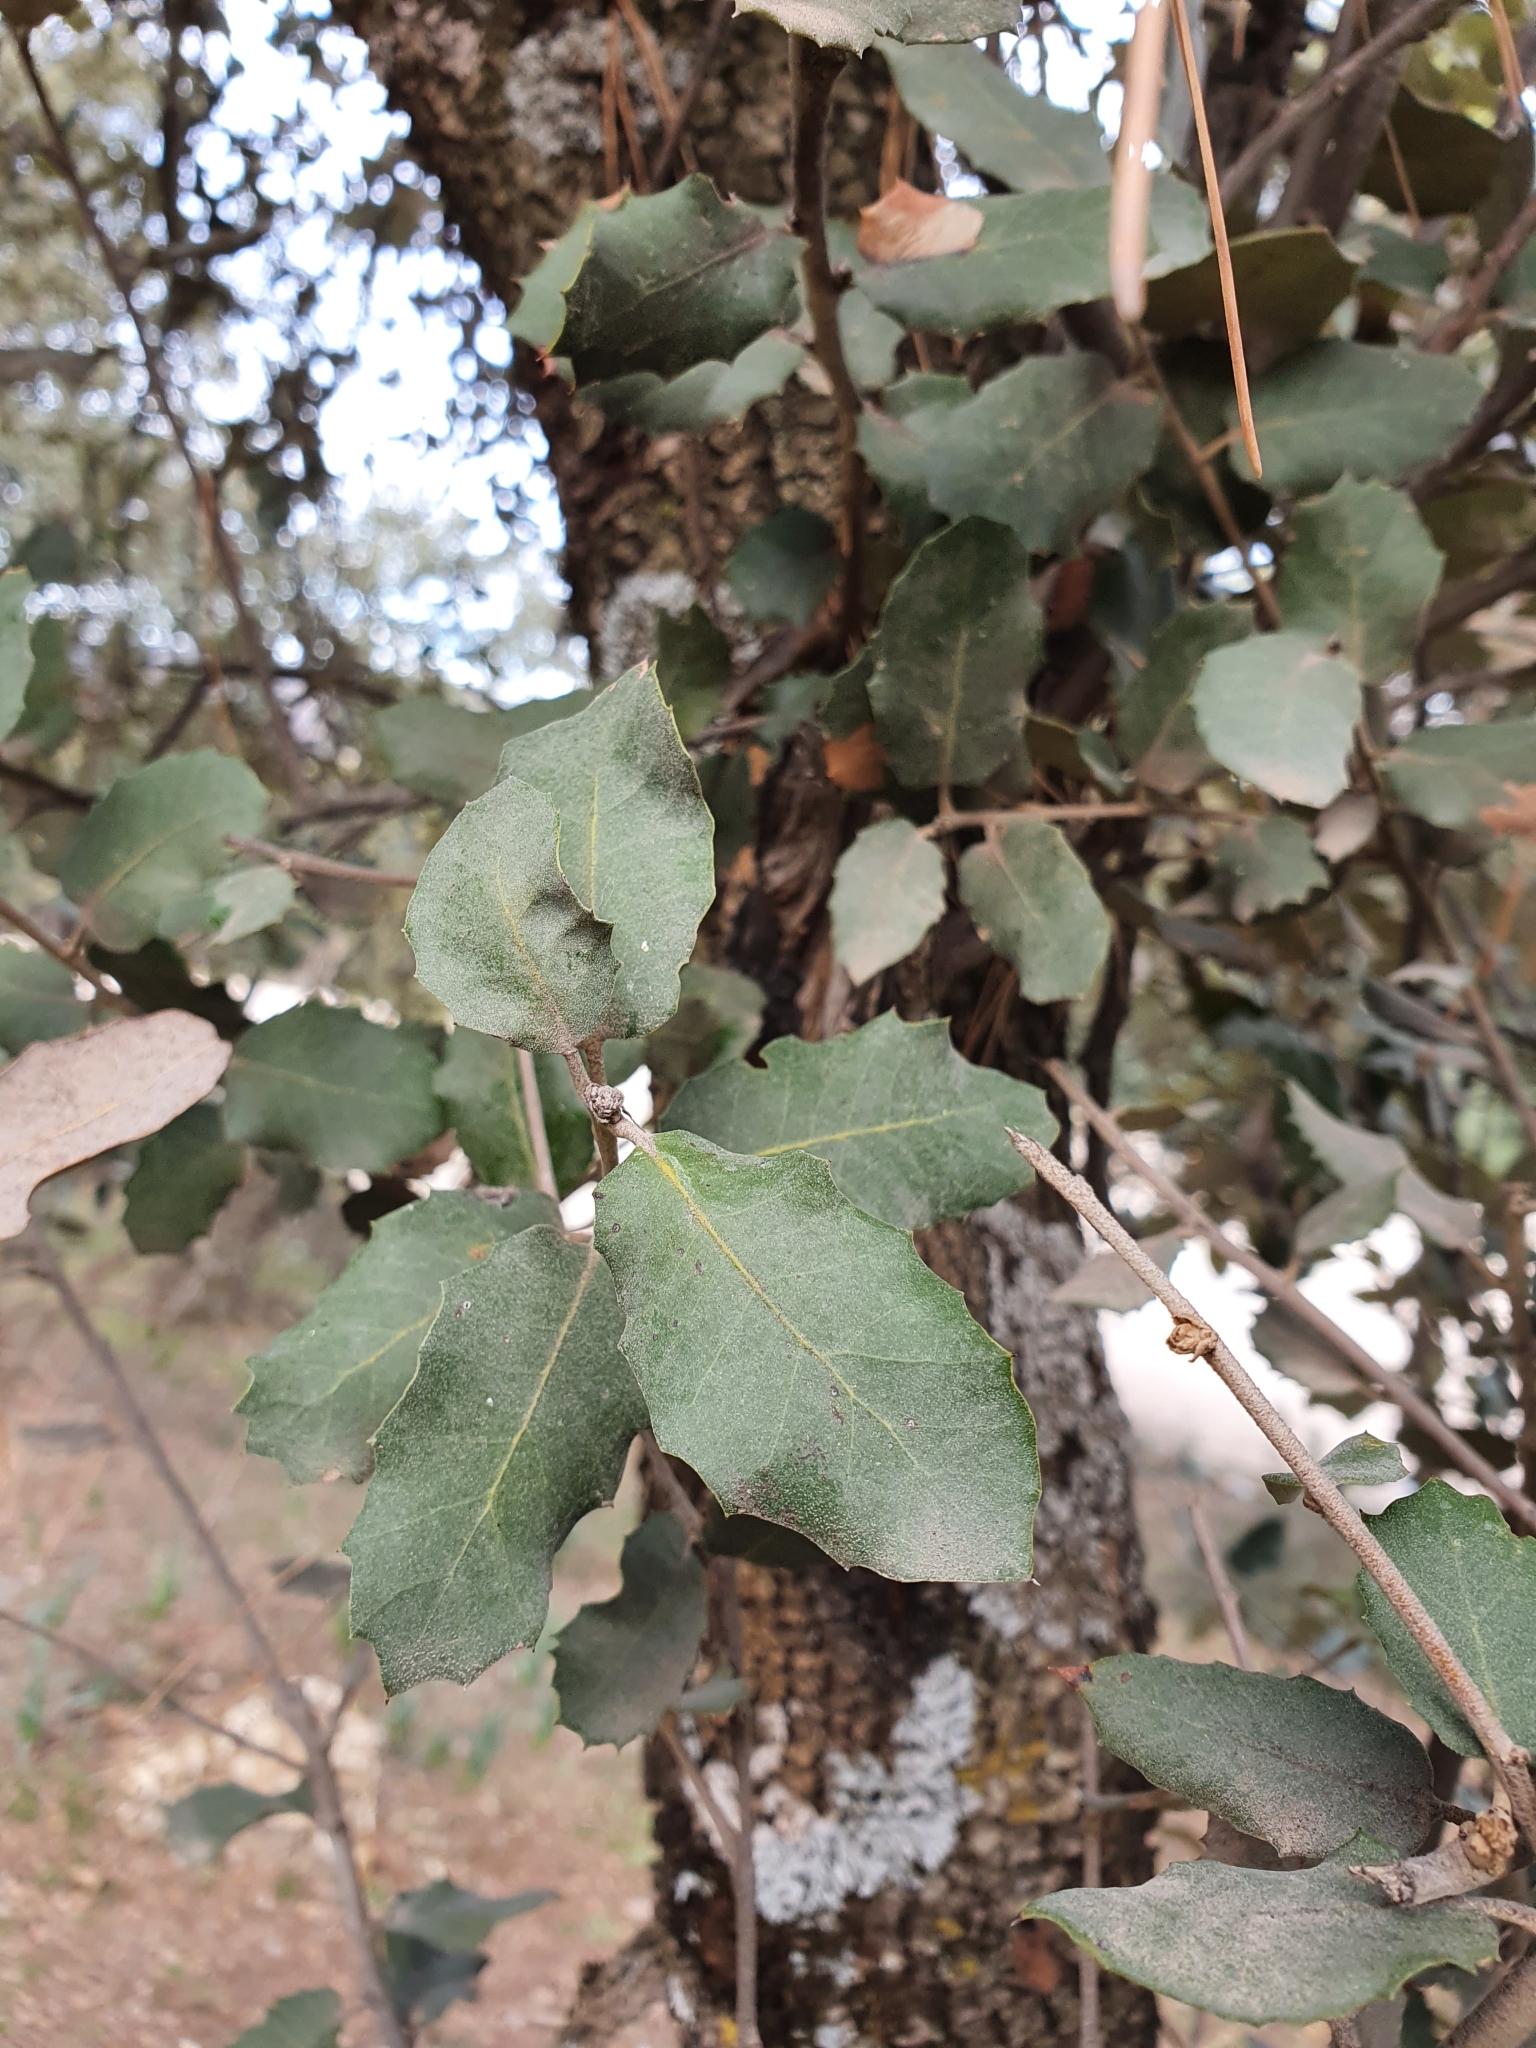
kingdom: Plantae
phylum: Tracheophyta
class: Magnoliopsida
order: Fagales
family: Fagaceae
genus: Quercus
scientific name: Quercus rotundifolia
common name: Holm oak
